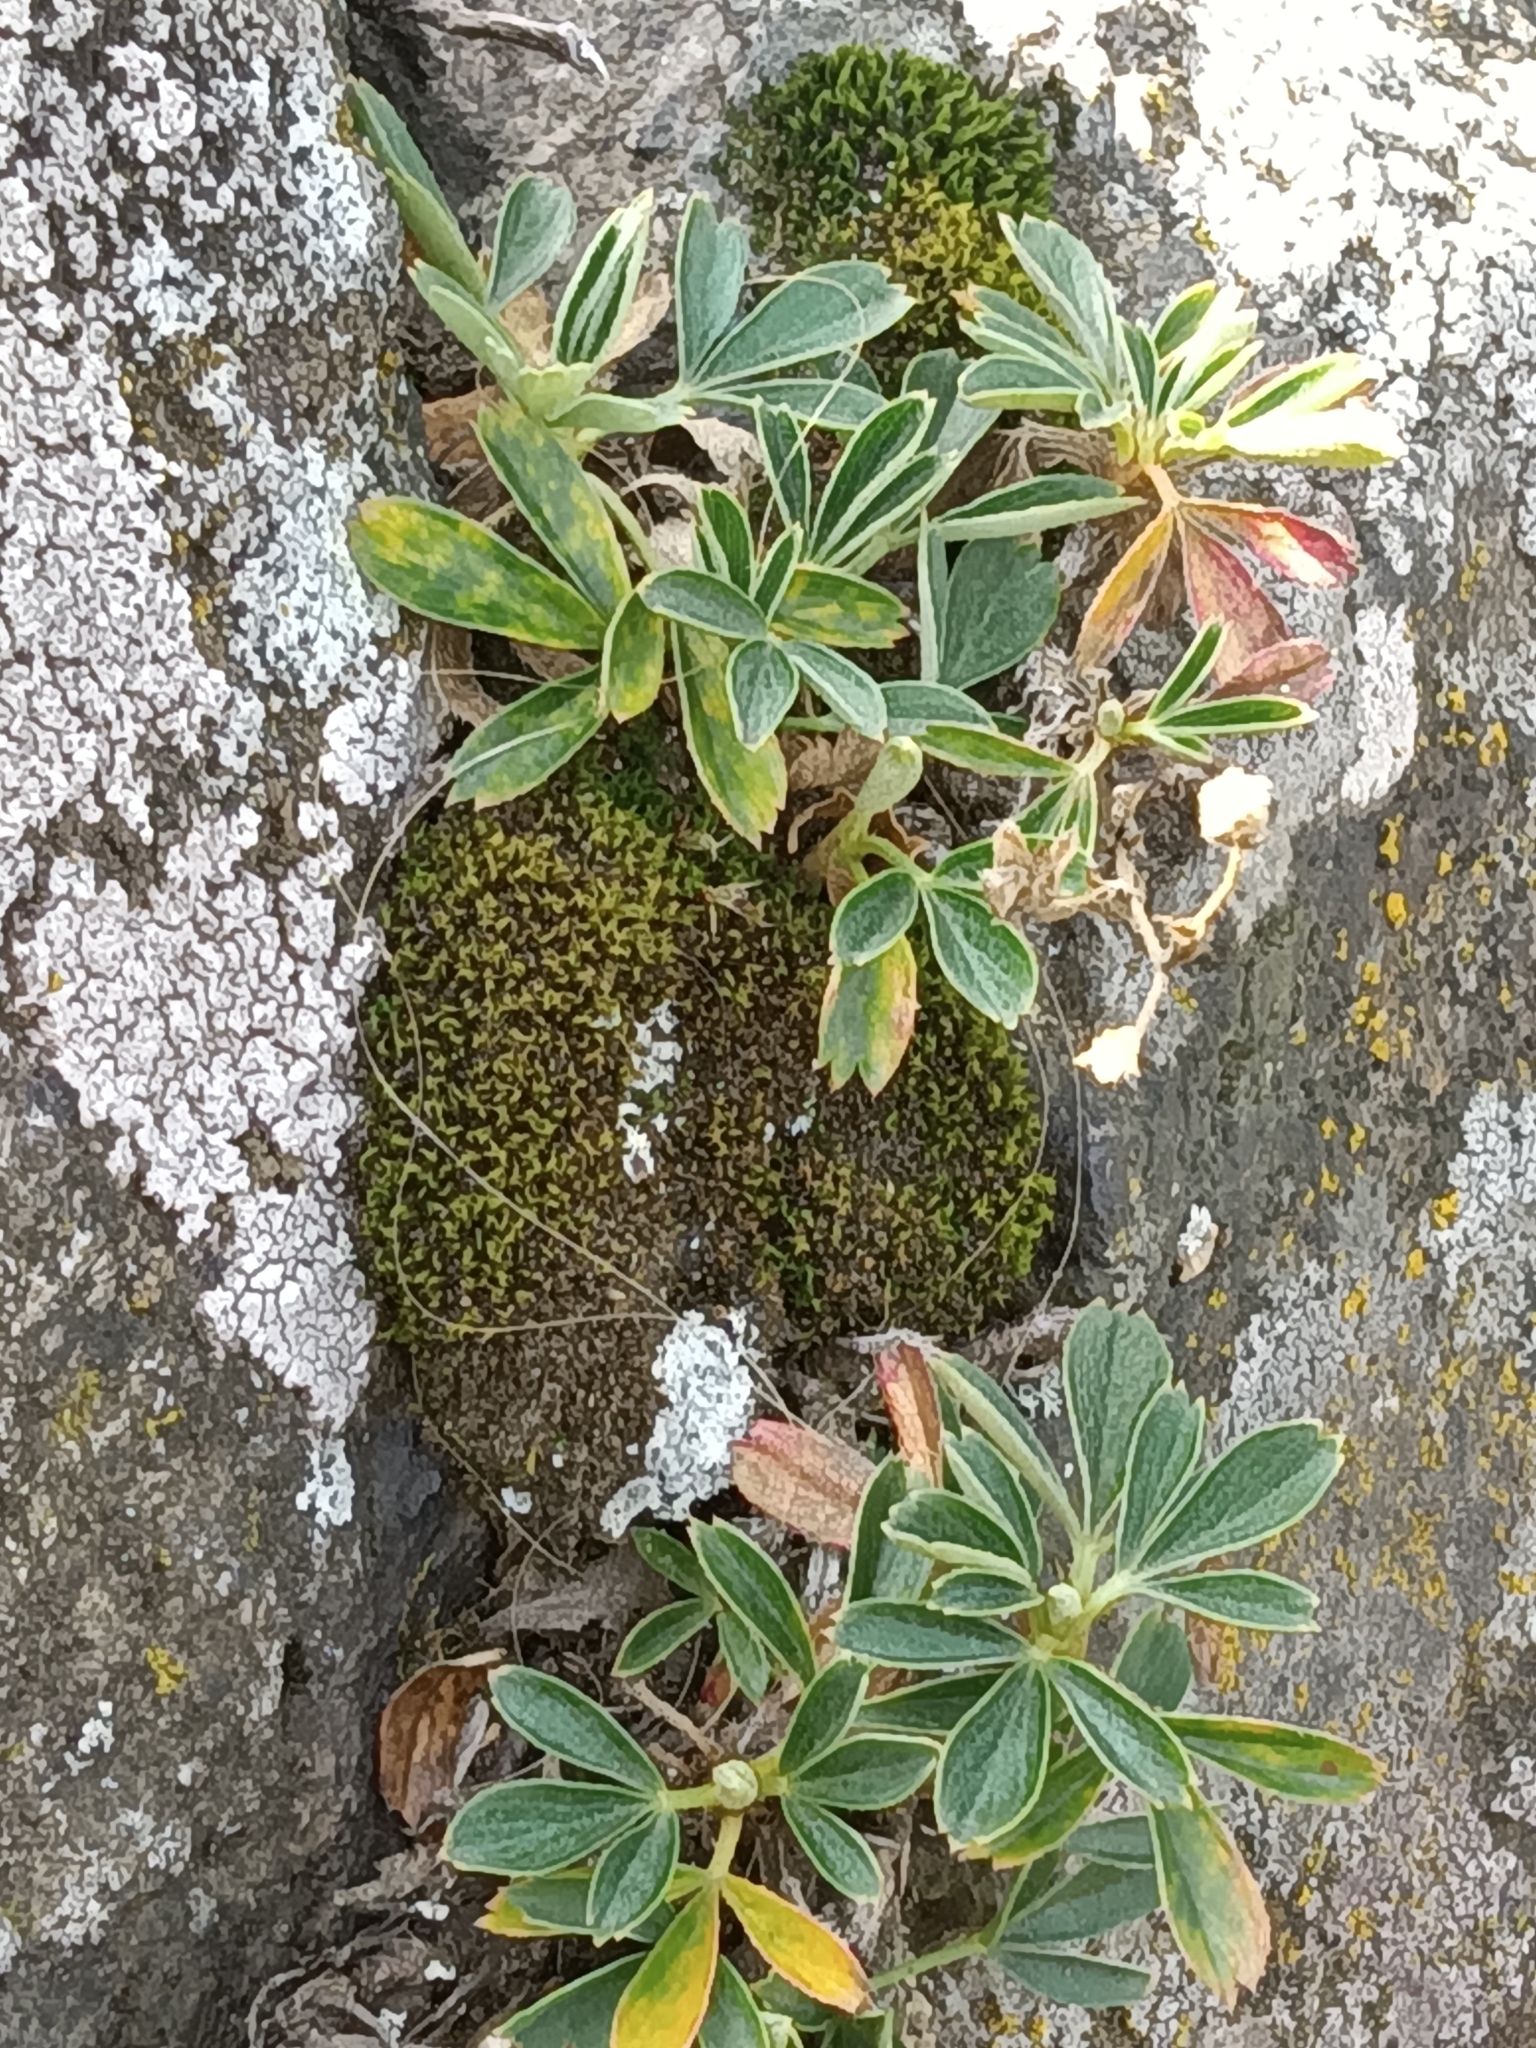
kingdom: Plantae
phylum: Tracheophyta
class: Magnoliopsida
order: Rosales
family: Rosaceae
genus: Sibbaldia
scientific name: Sibbaldia tridentata
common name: Three-toothed cinquefoil
